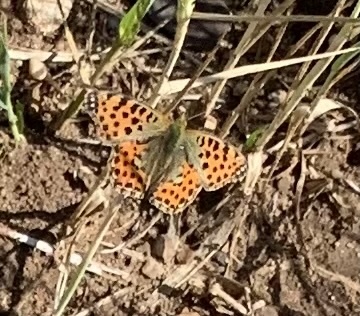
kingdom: Animalia
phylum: Arthropoda
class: Insecta
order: Lepidoptera
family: Nymphalidae
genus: Issoria
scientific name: Issoria lathonia
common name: Queen of spain fritillary
